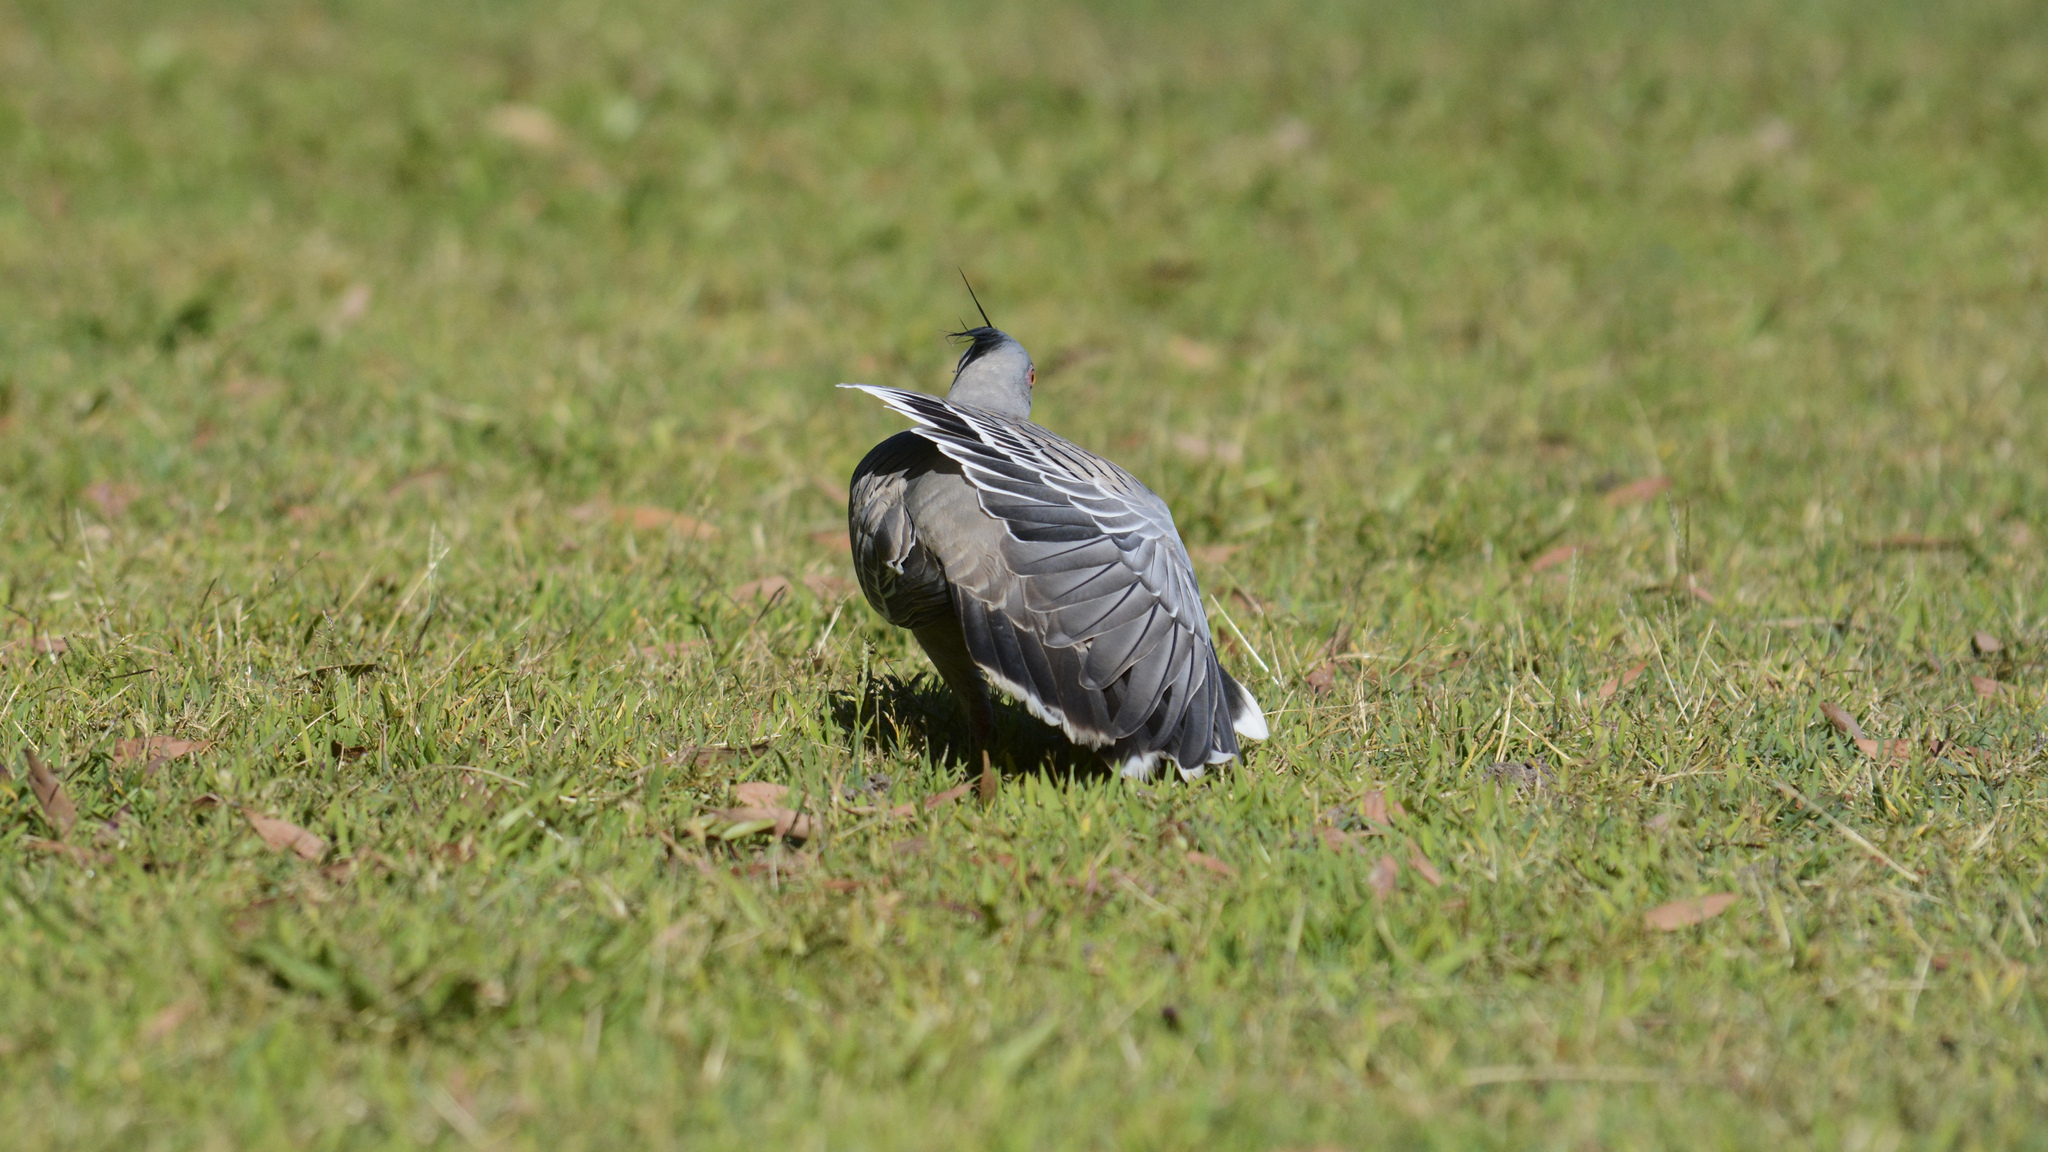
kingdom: Animalia
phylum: Chordata
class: Aves
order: Columbiformes
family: Columbidae
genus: Ocyphaps
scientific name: Ocyphaps lophotes
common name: Crested pigeon
